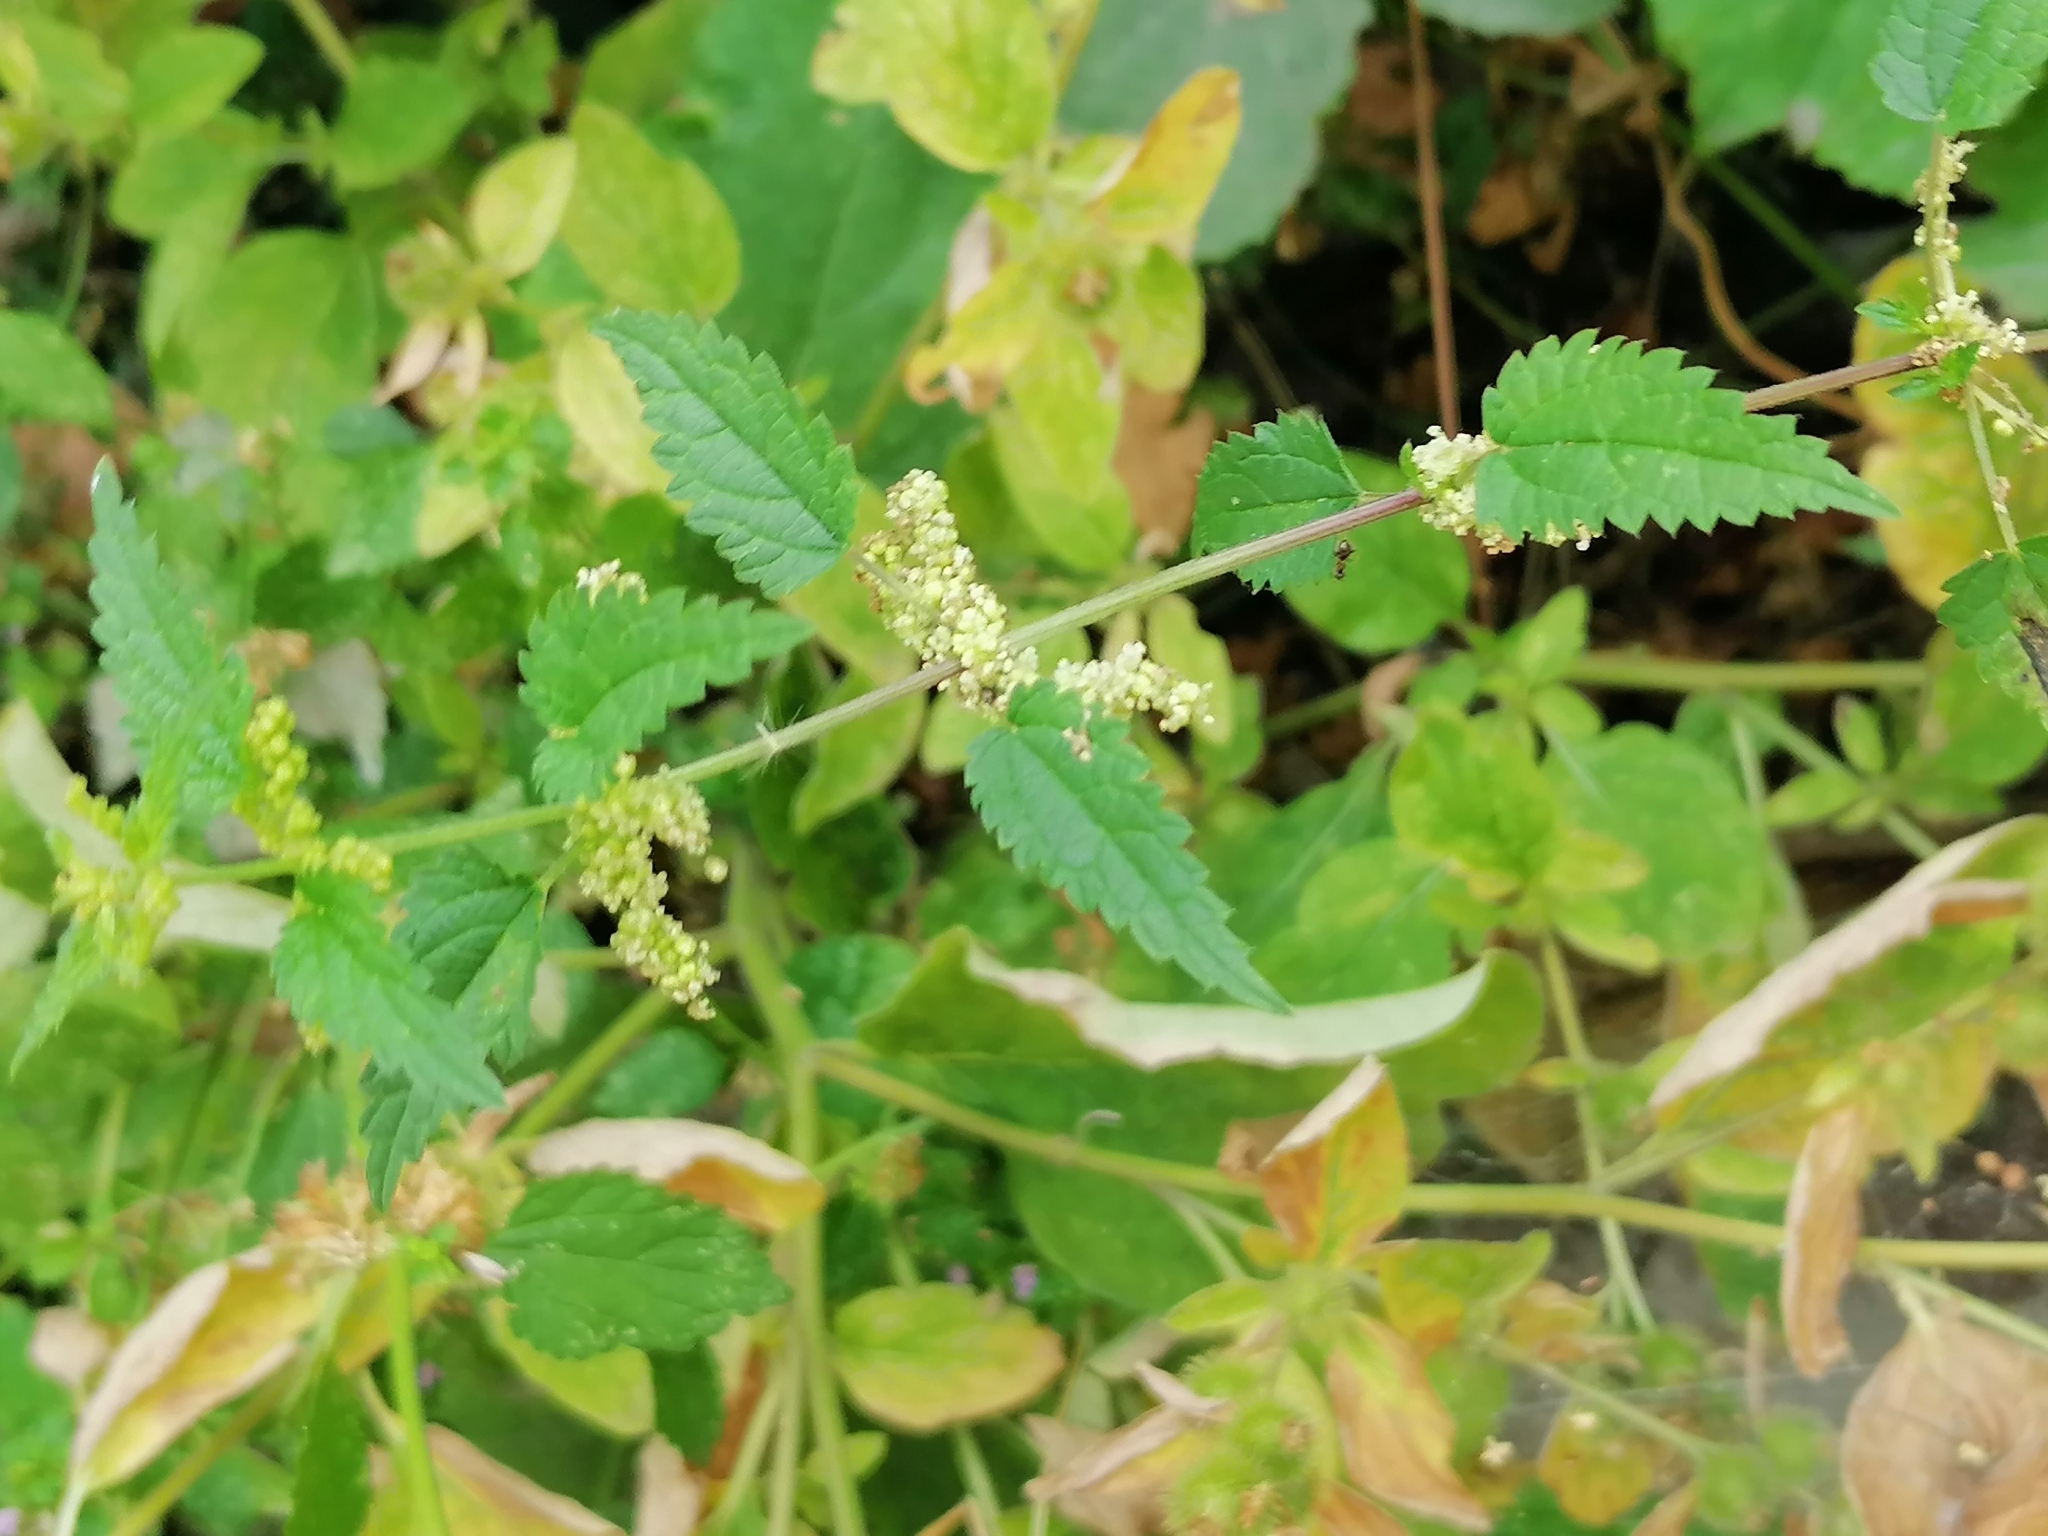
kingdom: Plantae
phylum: Tracheophyta
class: Magnoliopsida
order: Rosales
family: Urticaceae
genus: Urtica
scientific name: Urtica dioica
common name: Common nettle
